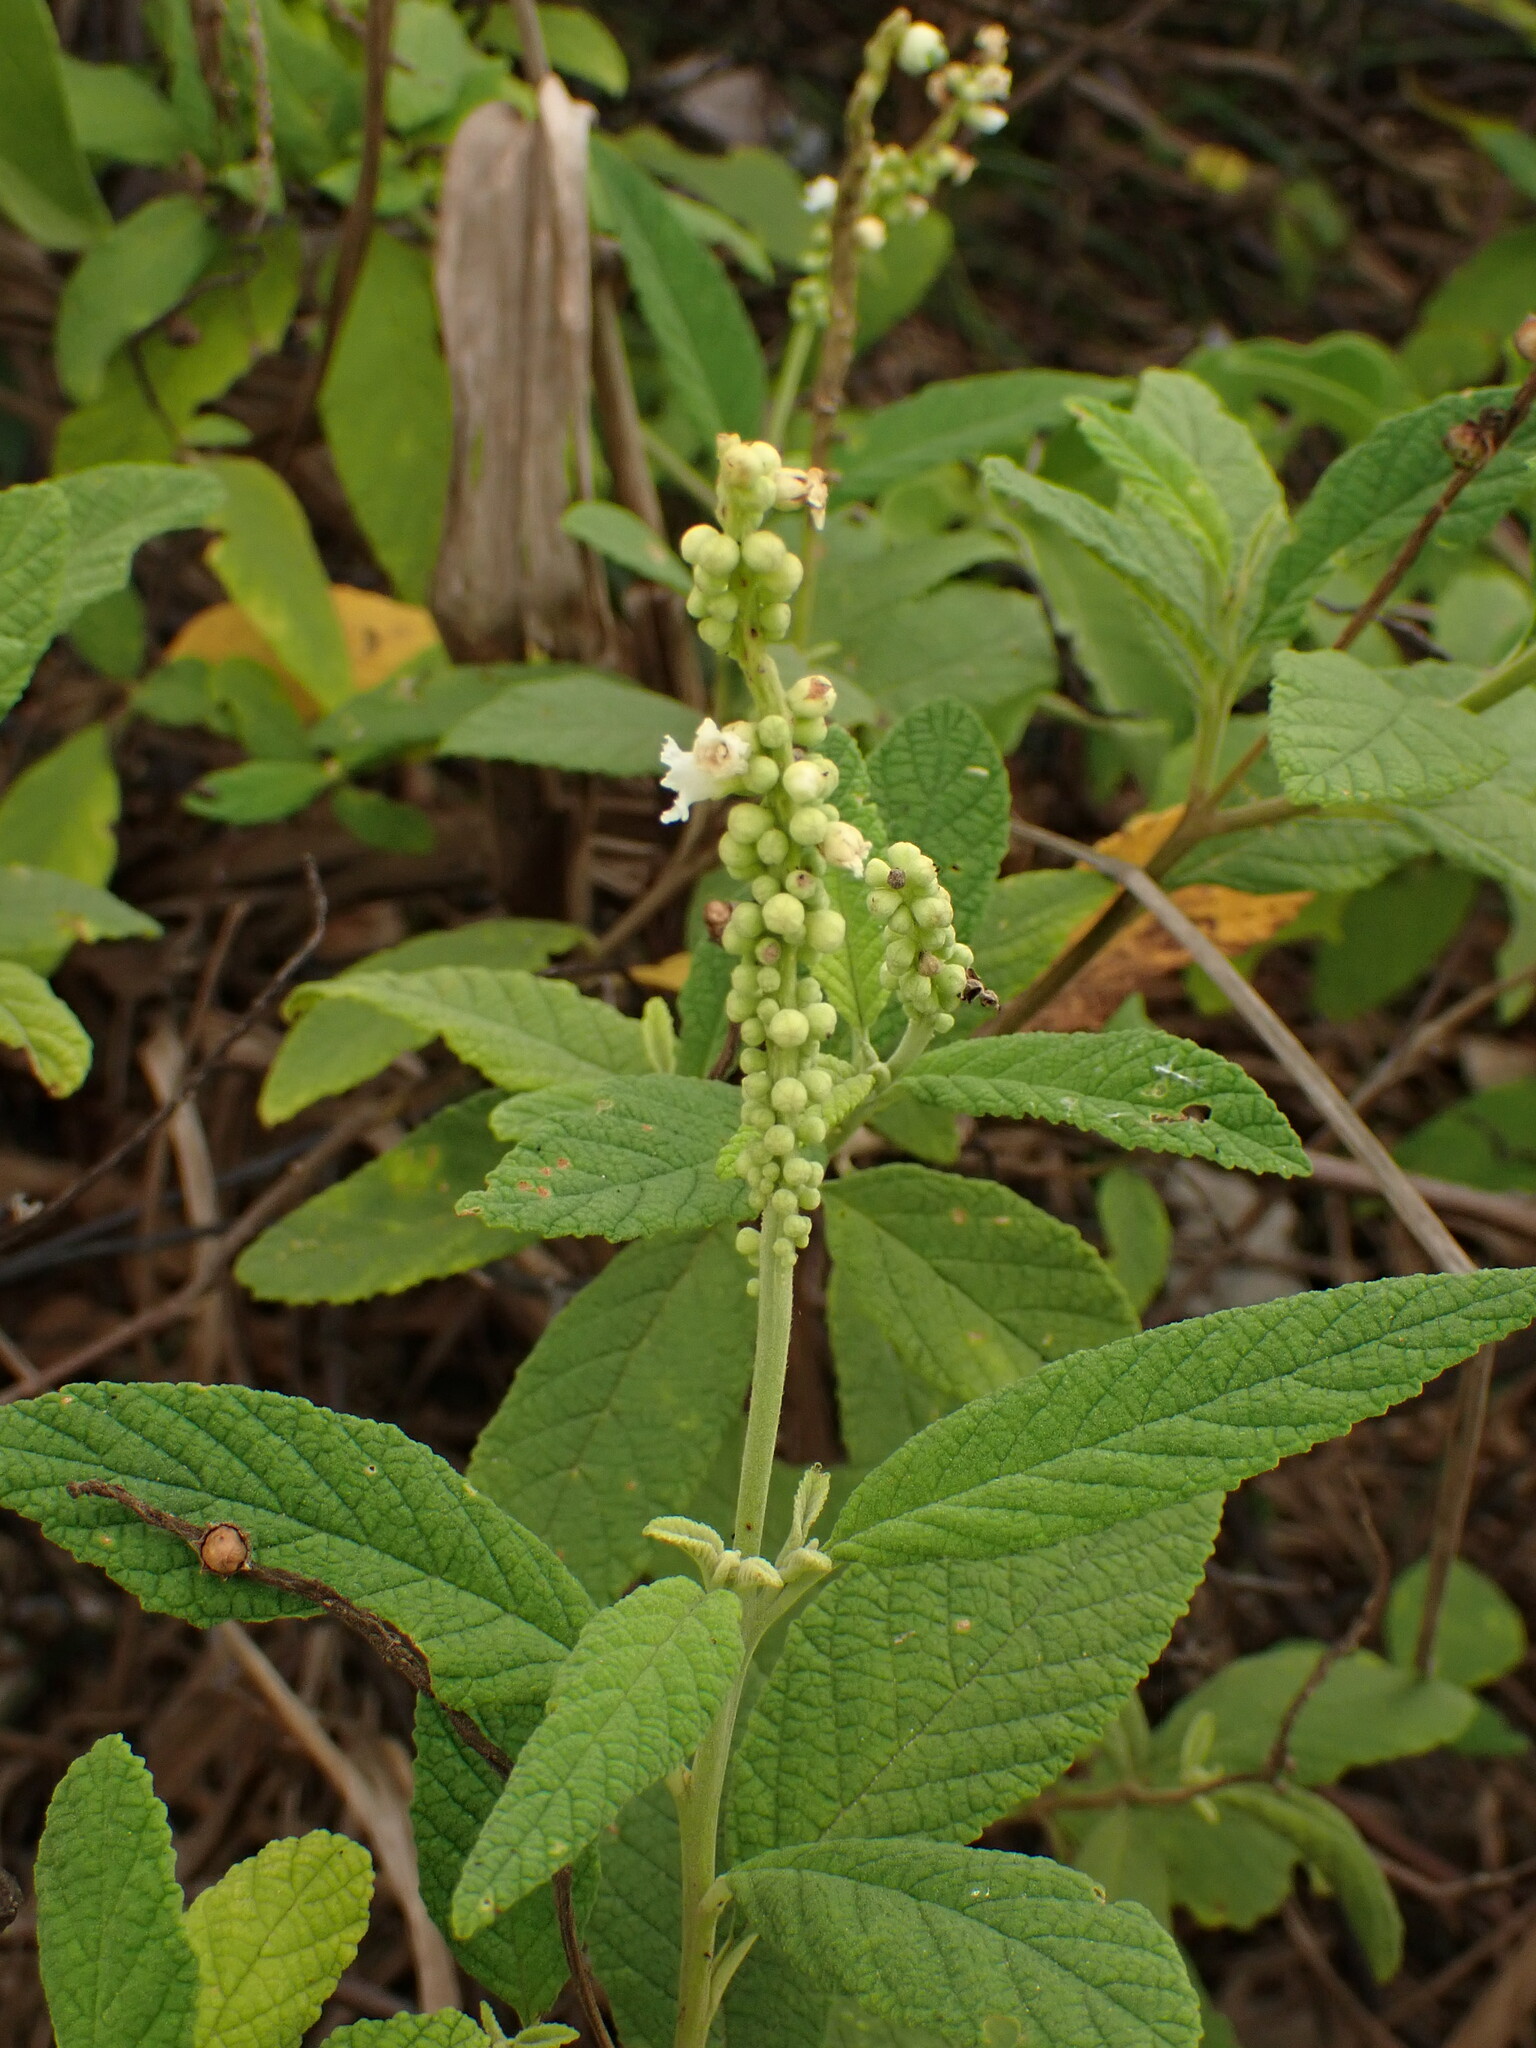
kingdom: Plantae
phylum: Tracheophyta
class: Magnoliopsida
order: Boraginales
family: Cordiaceae
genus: Varronia
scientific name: Varronia curassavica
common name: Black sage
